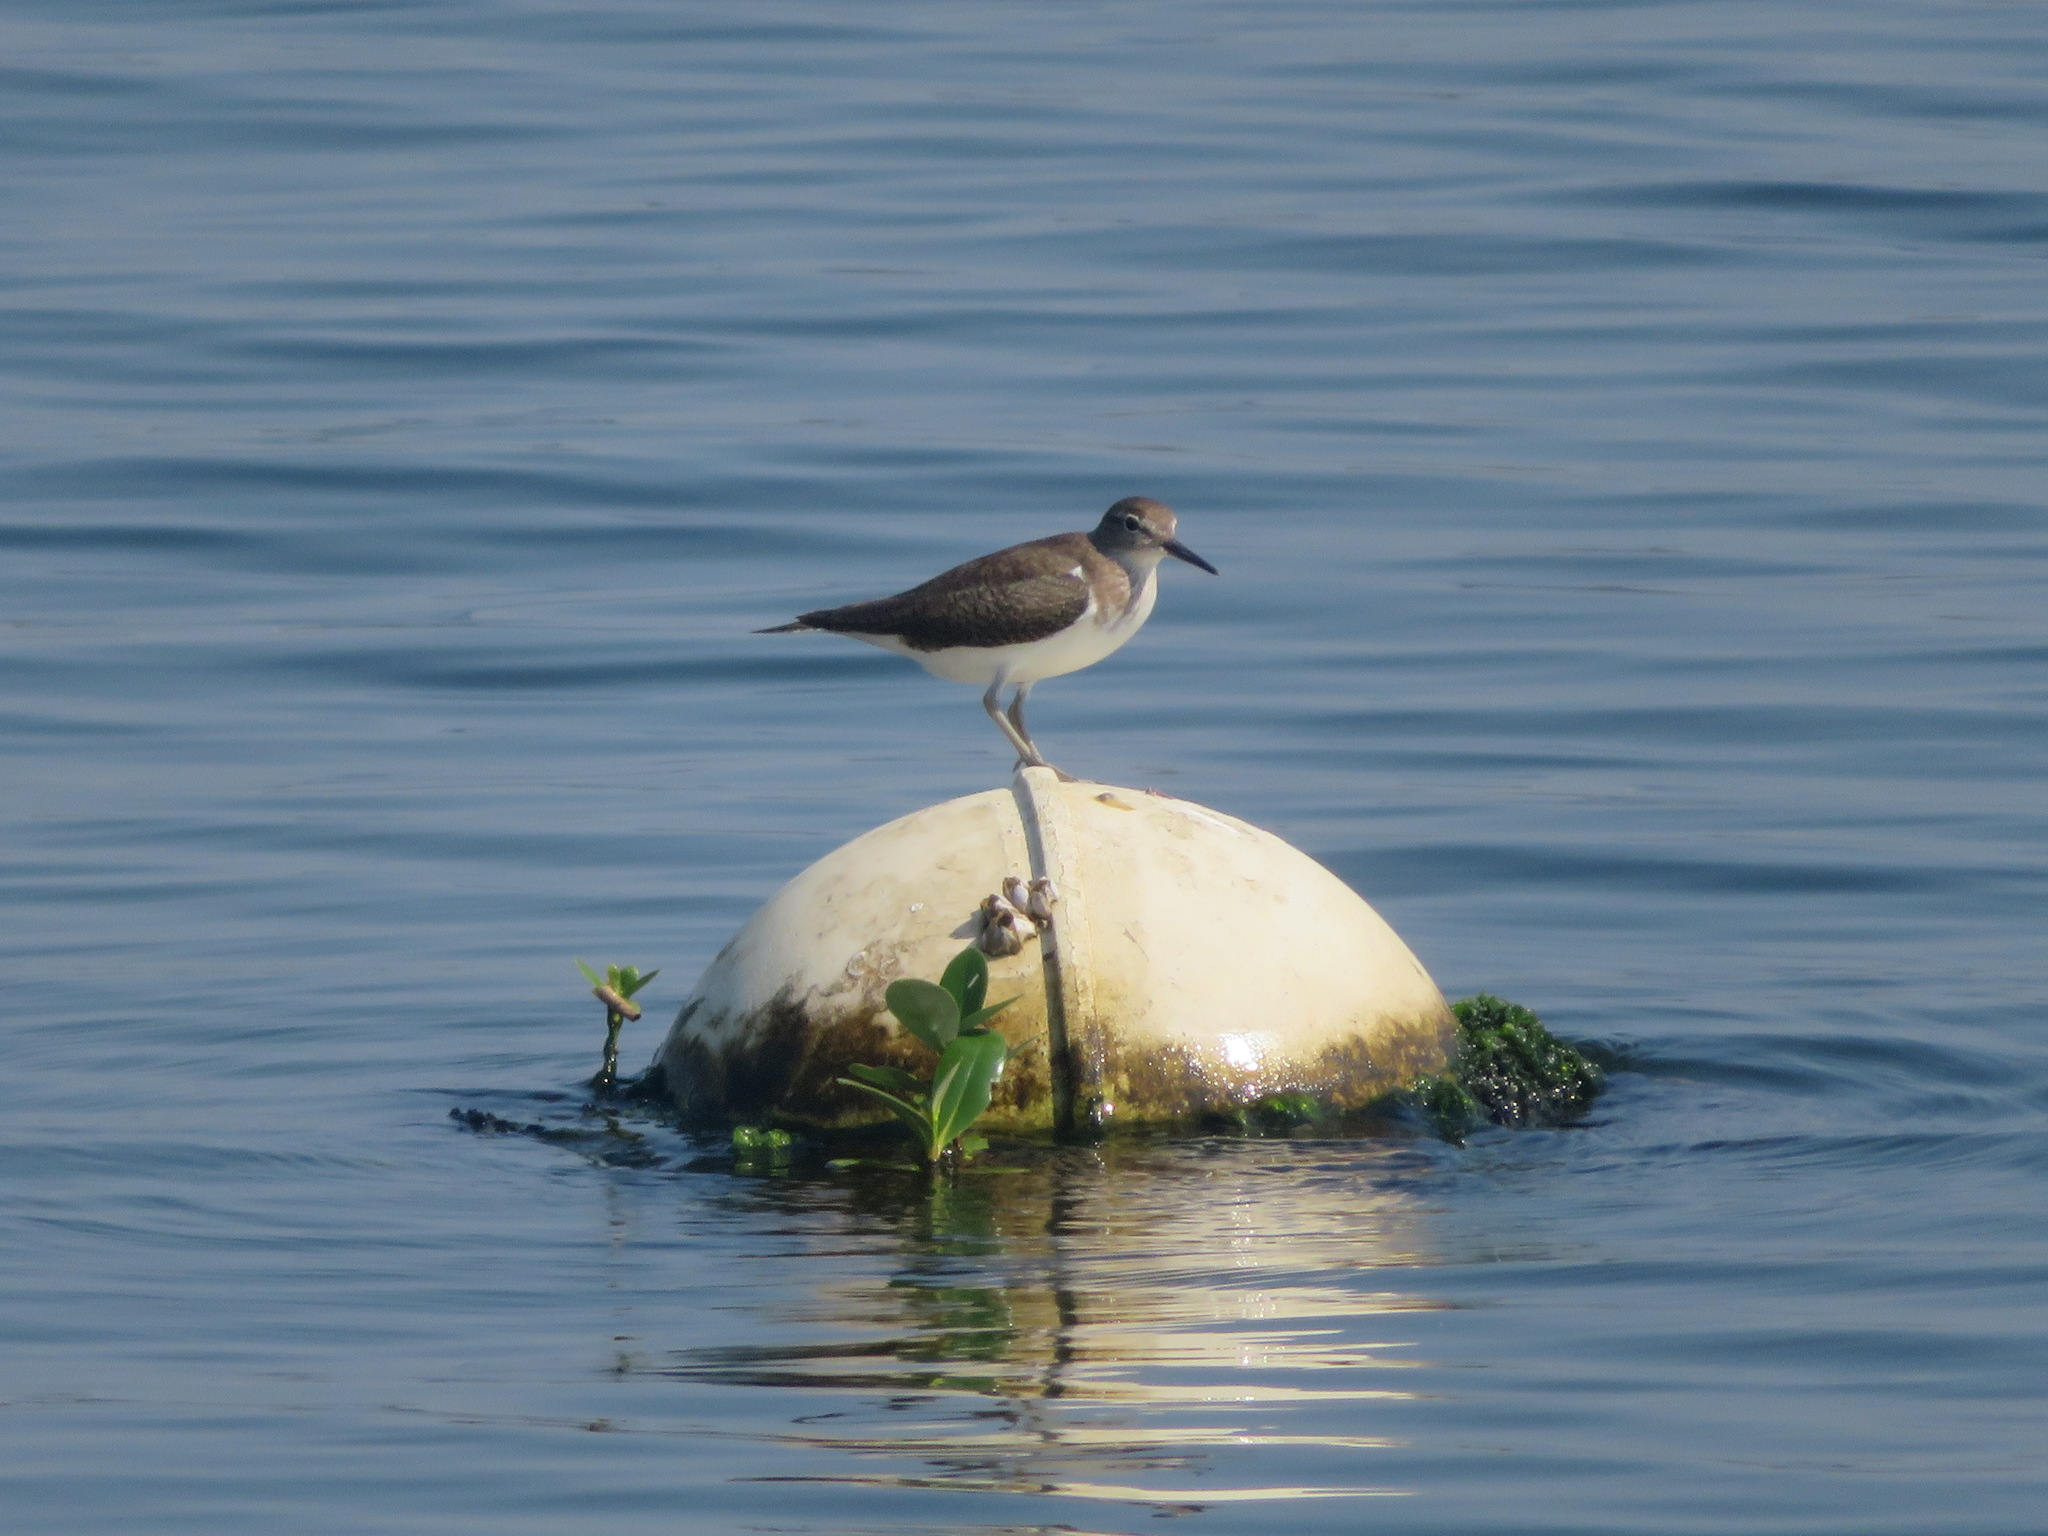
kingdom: Animalia
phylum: Chordata
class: Aves
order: Charadriiformes
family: Scolopacidae
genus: Actitis
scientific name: Actitis hypoleucos
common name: Common sandpiper
